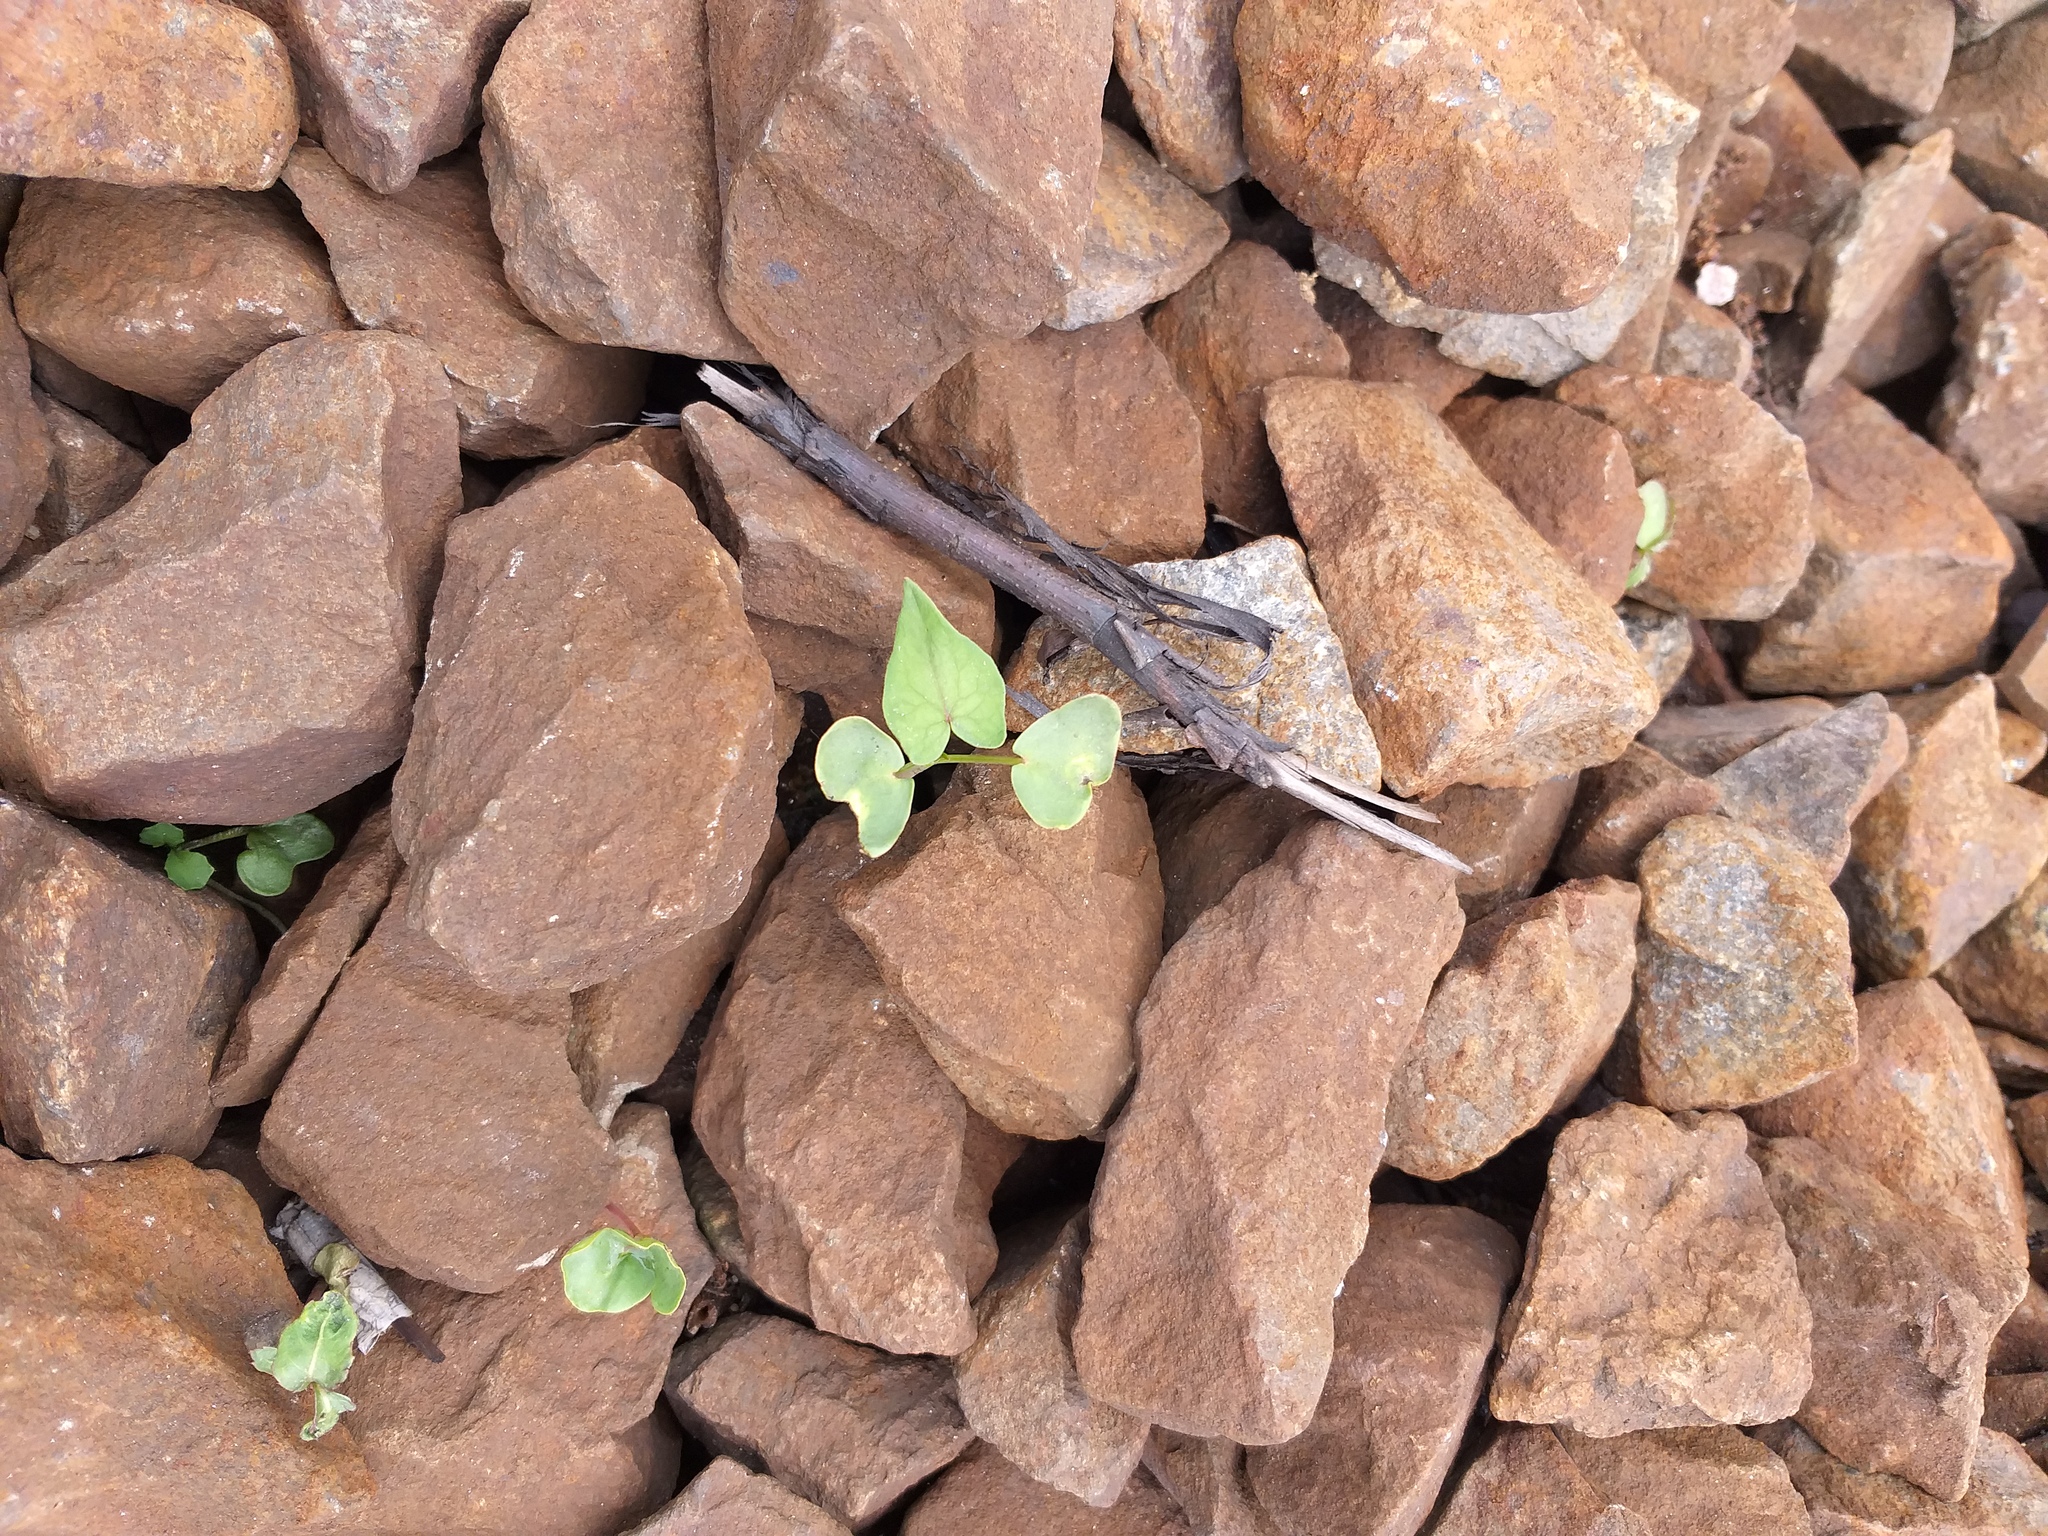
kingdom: Plantae
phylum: Tracheophyta
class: Magnoliopsida
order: Caryophyllales
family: Polygonaceae
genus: Fagopyrum
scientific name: Fagopyrum esculentum
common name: Buckwheat
